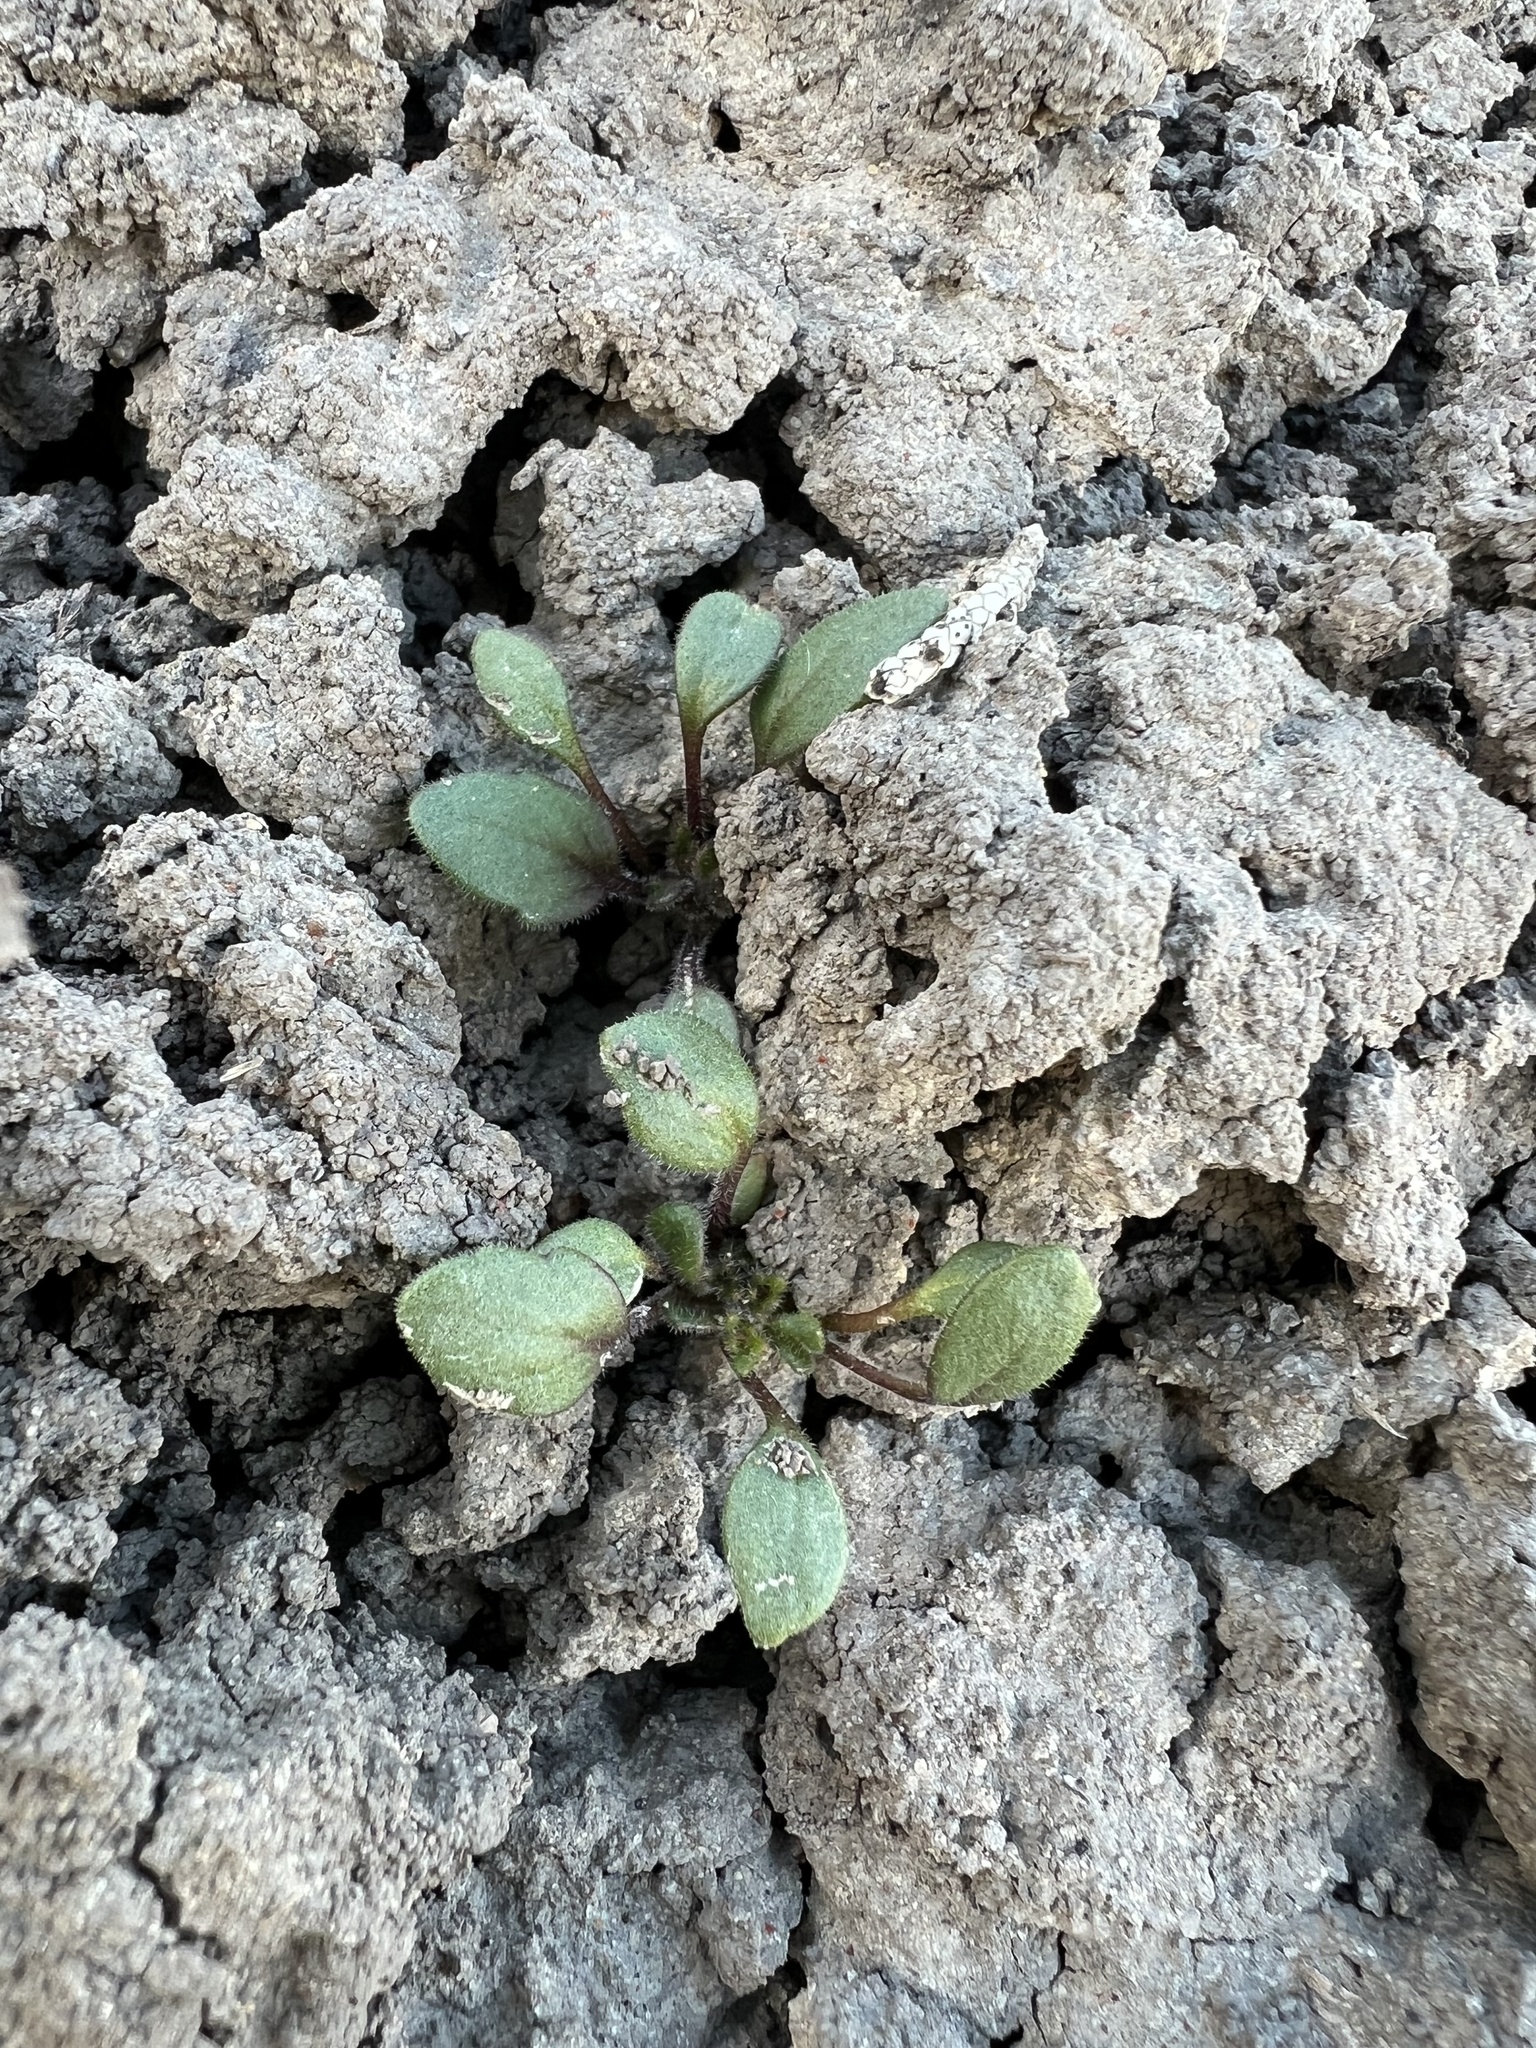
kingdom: Plantae
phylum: Tracheophyta
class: Magnoliopsida
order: Boraginales
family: Hydrophyllaceae
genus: Phacelia
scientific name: Phacelia scopulina
